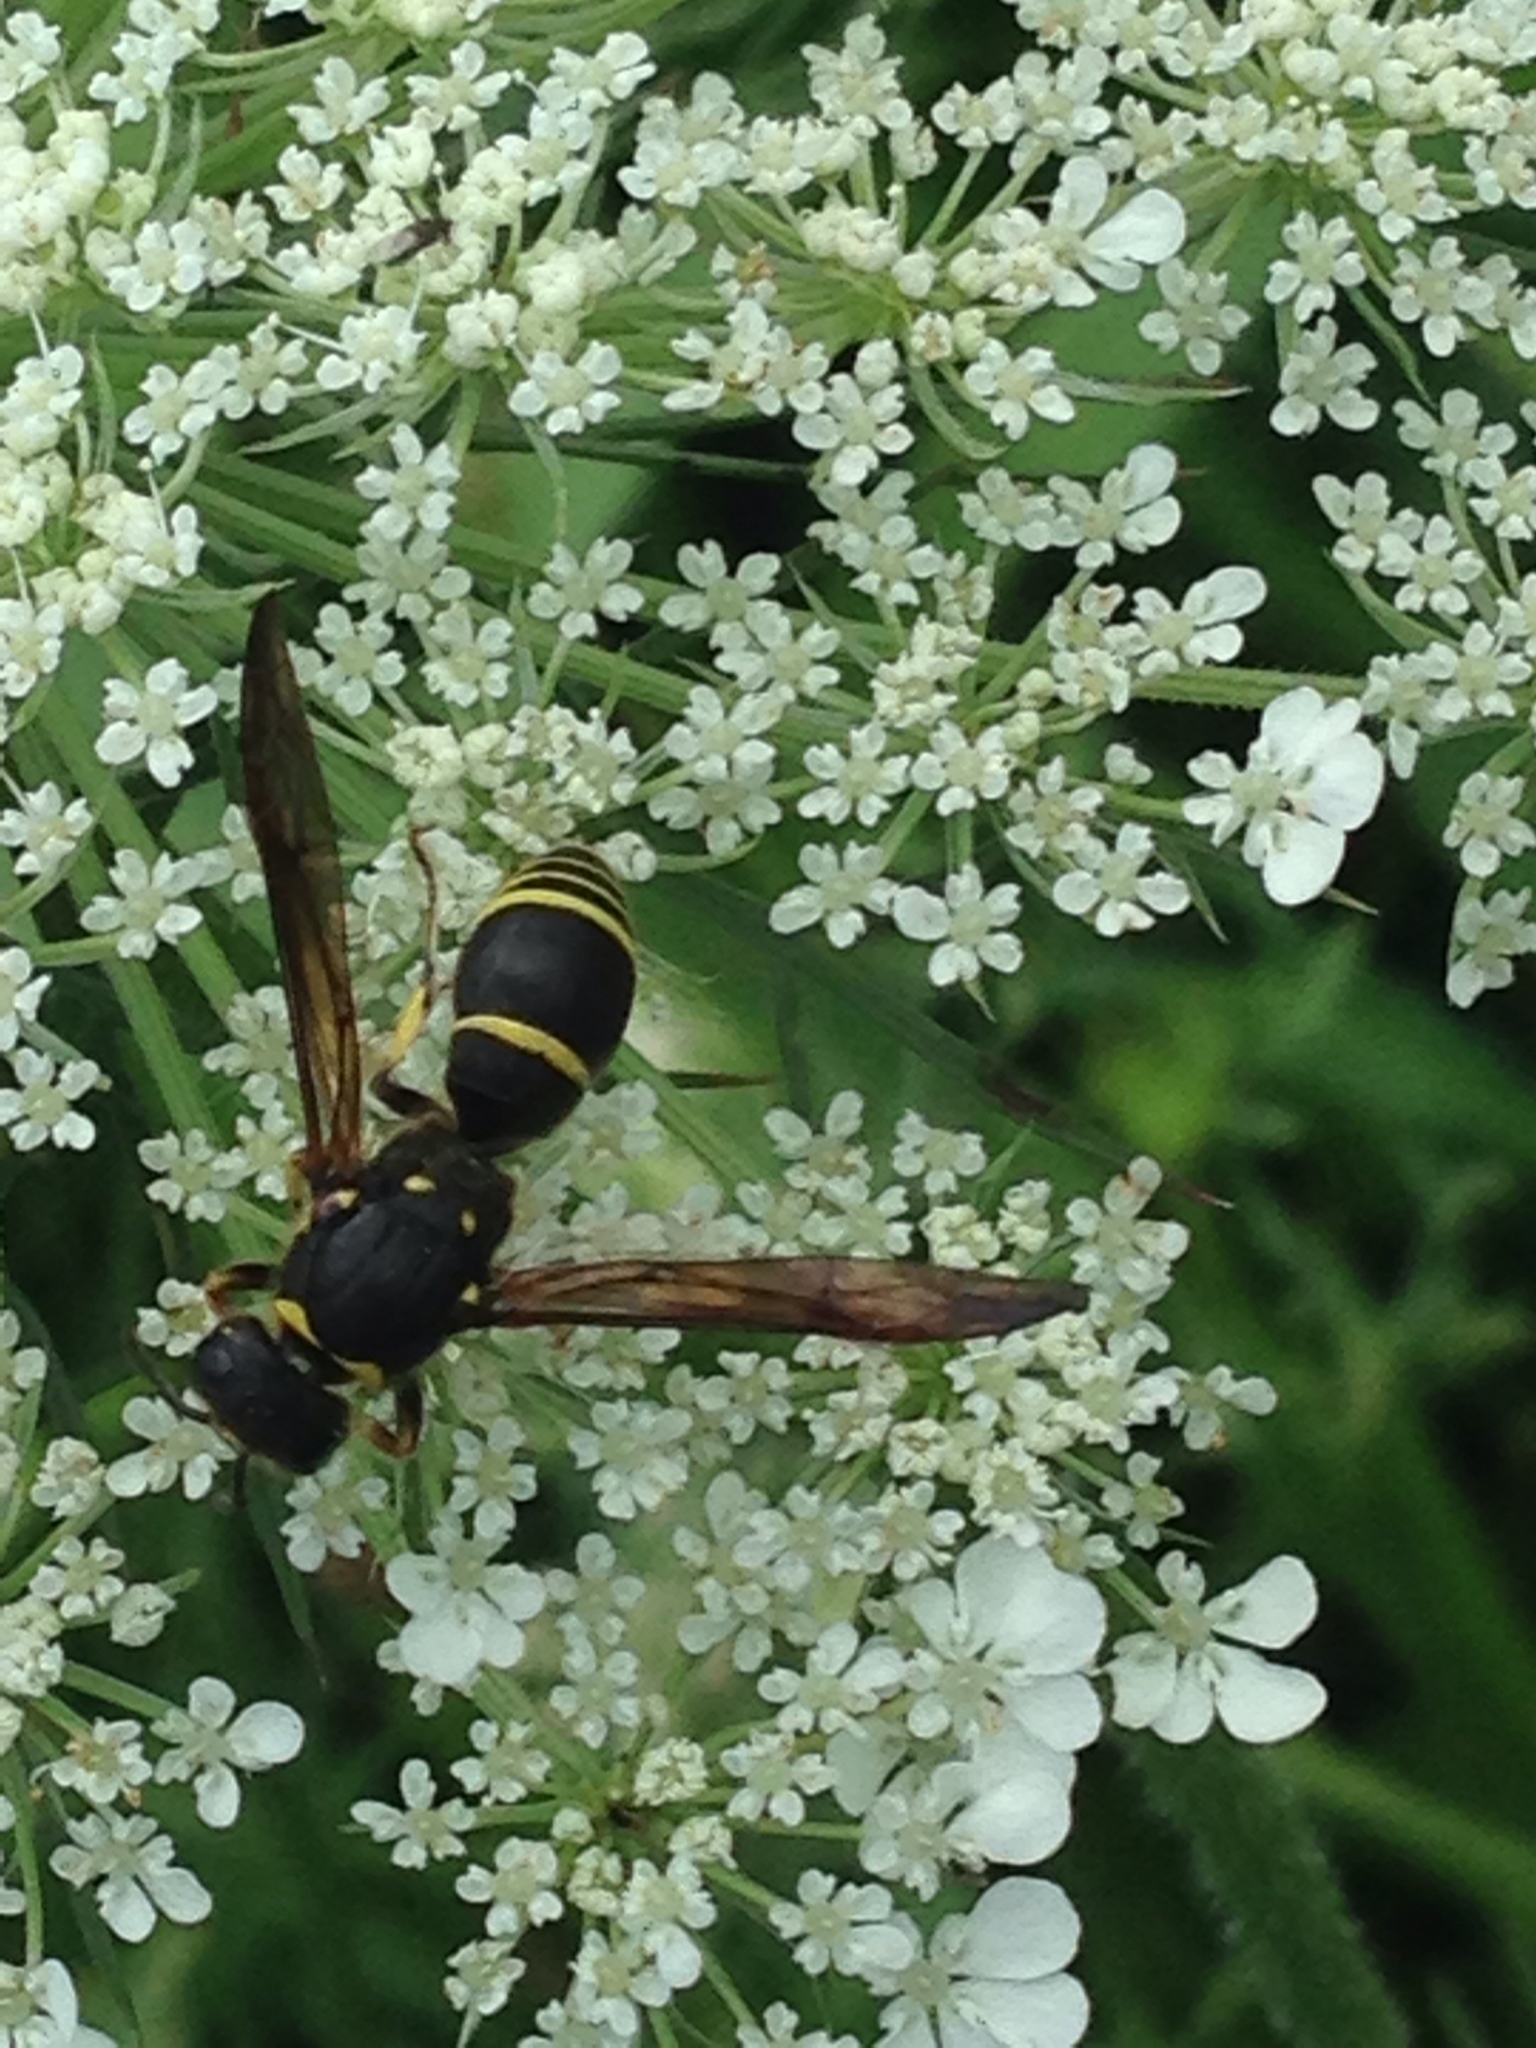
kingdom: Animalia
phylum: Arthropoda
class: Insecta
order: Hymenoptera
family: Vespidae
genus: Ancistrocerus
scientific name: Ancistrocerus
